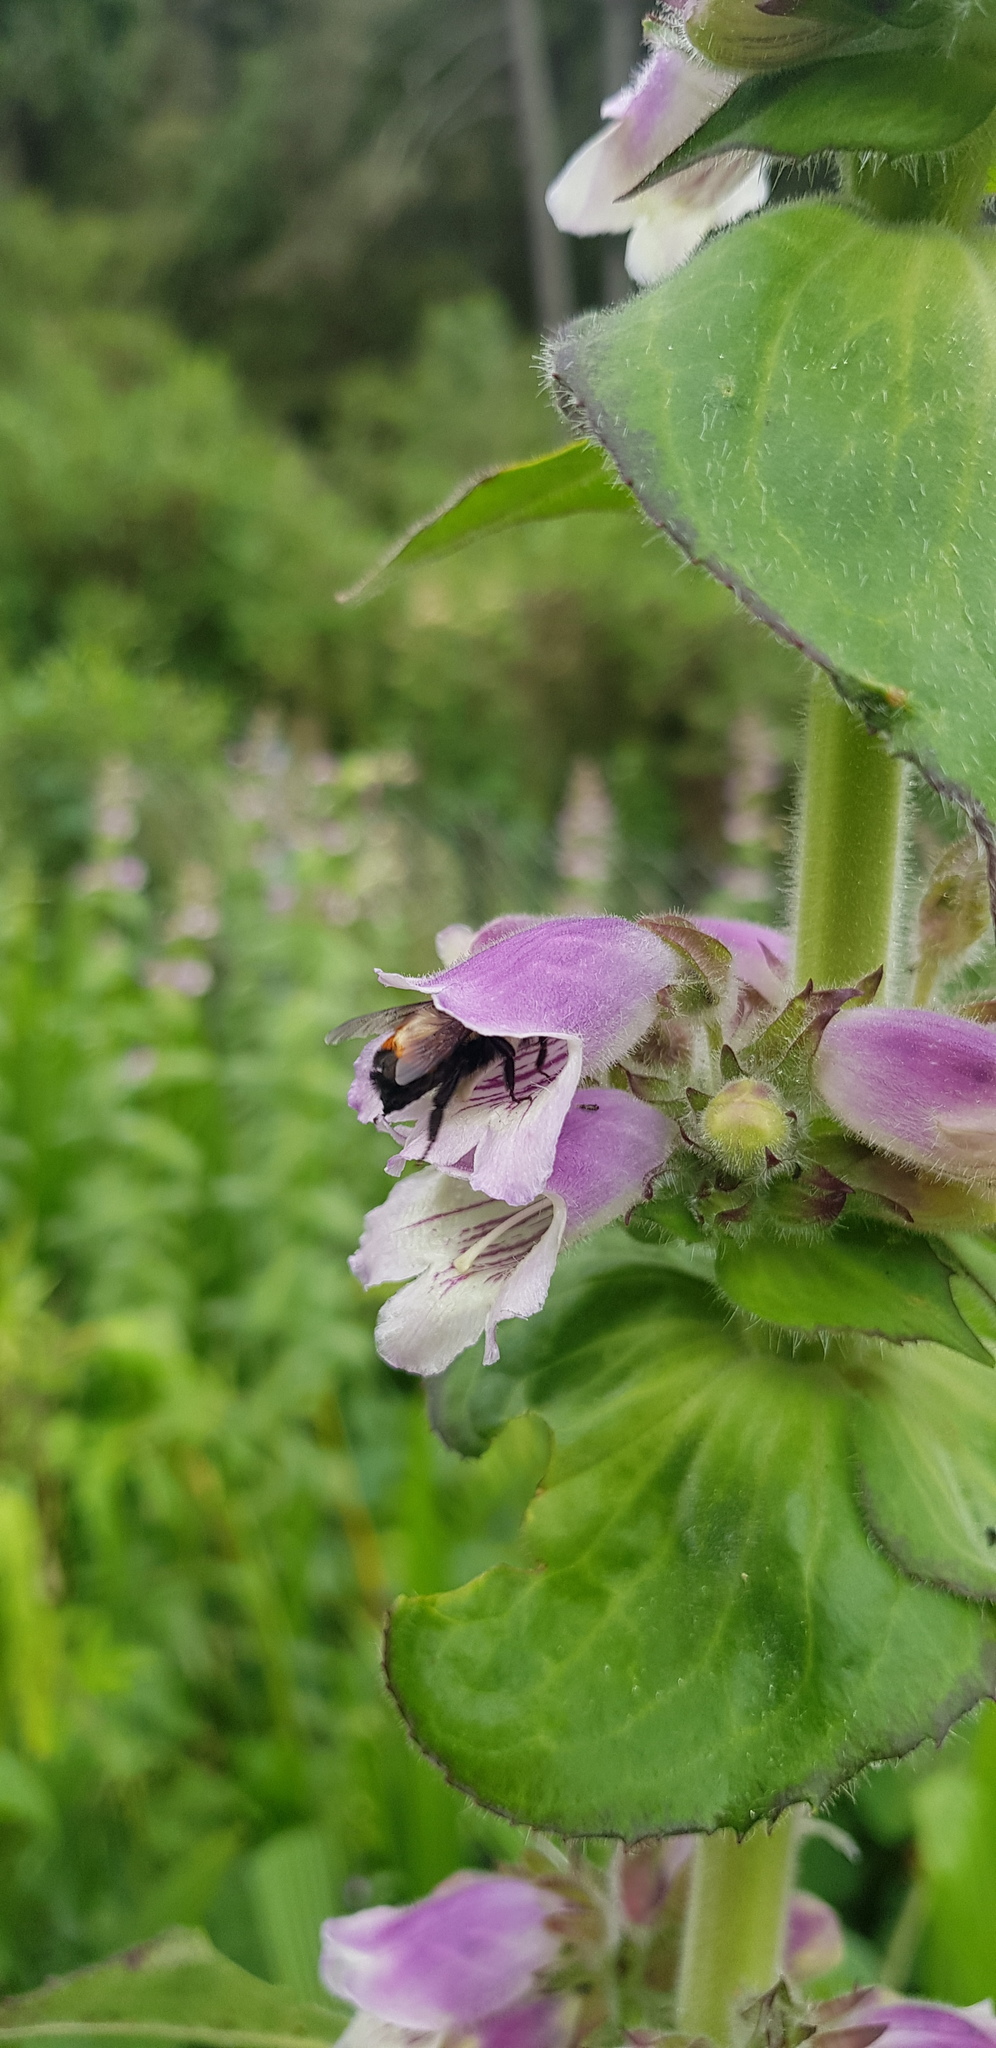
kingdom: Plantae
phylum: Tracheophyta
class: Magnoliopsida
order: Lamiales
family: Plantaginaceae
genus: Penstemon
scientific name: Penstemon perfoliatus
